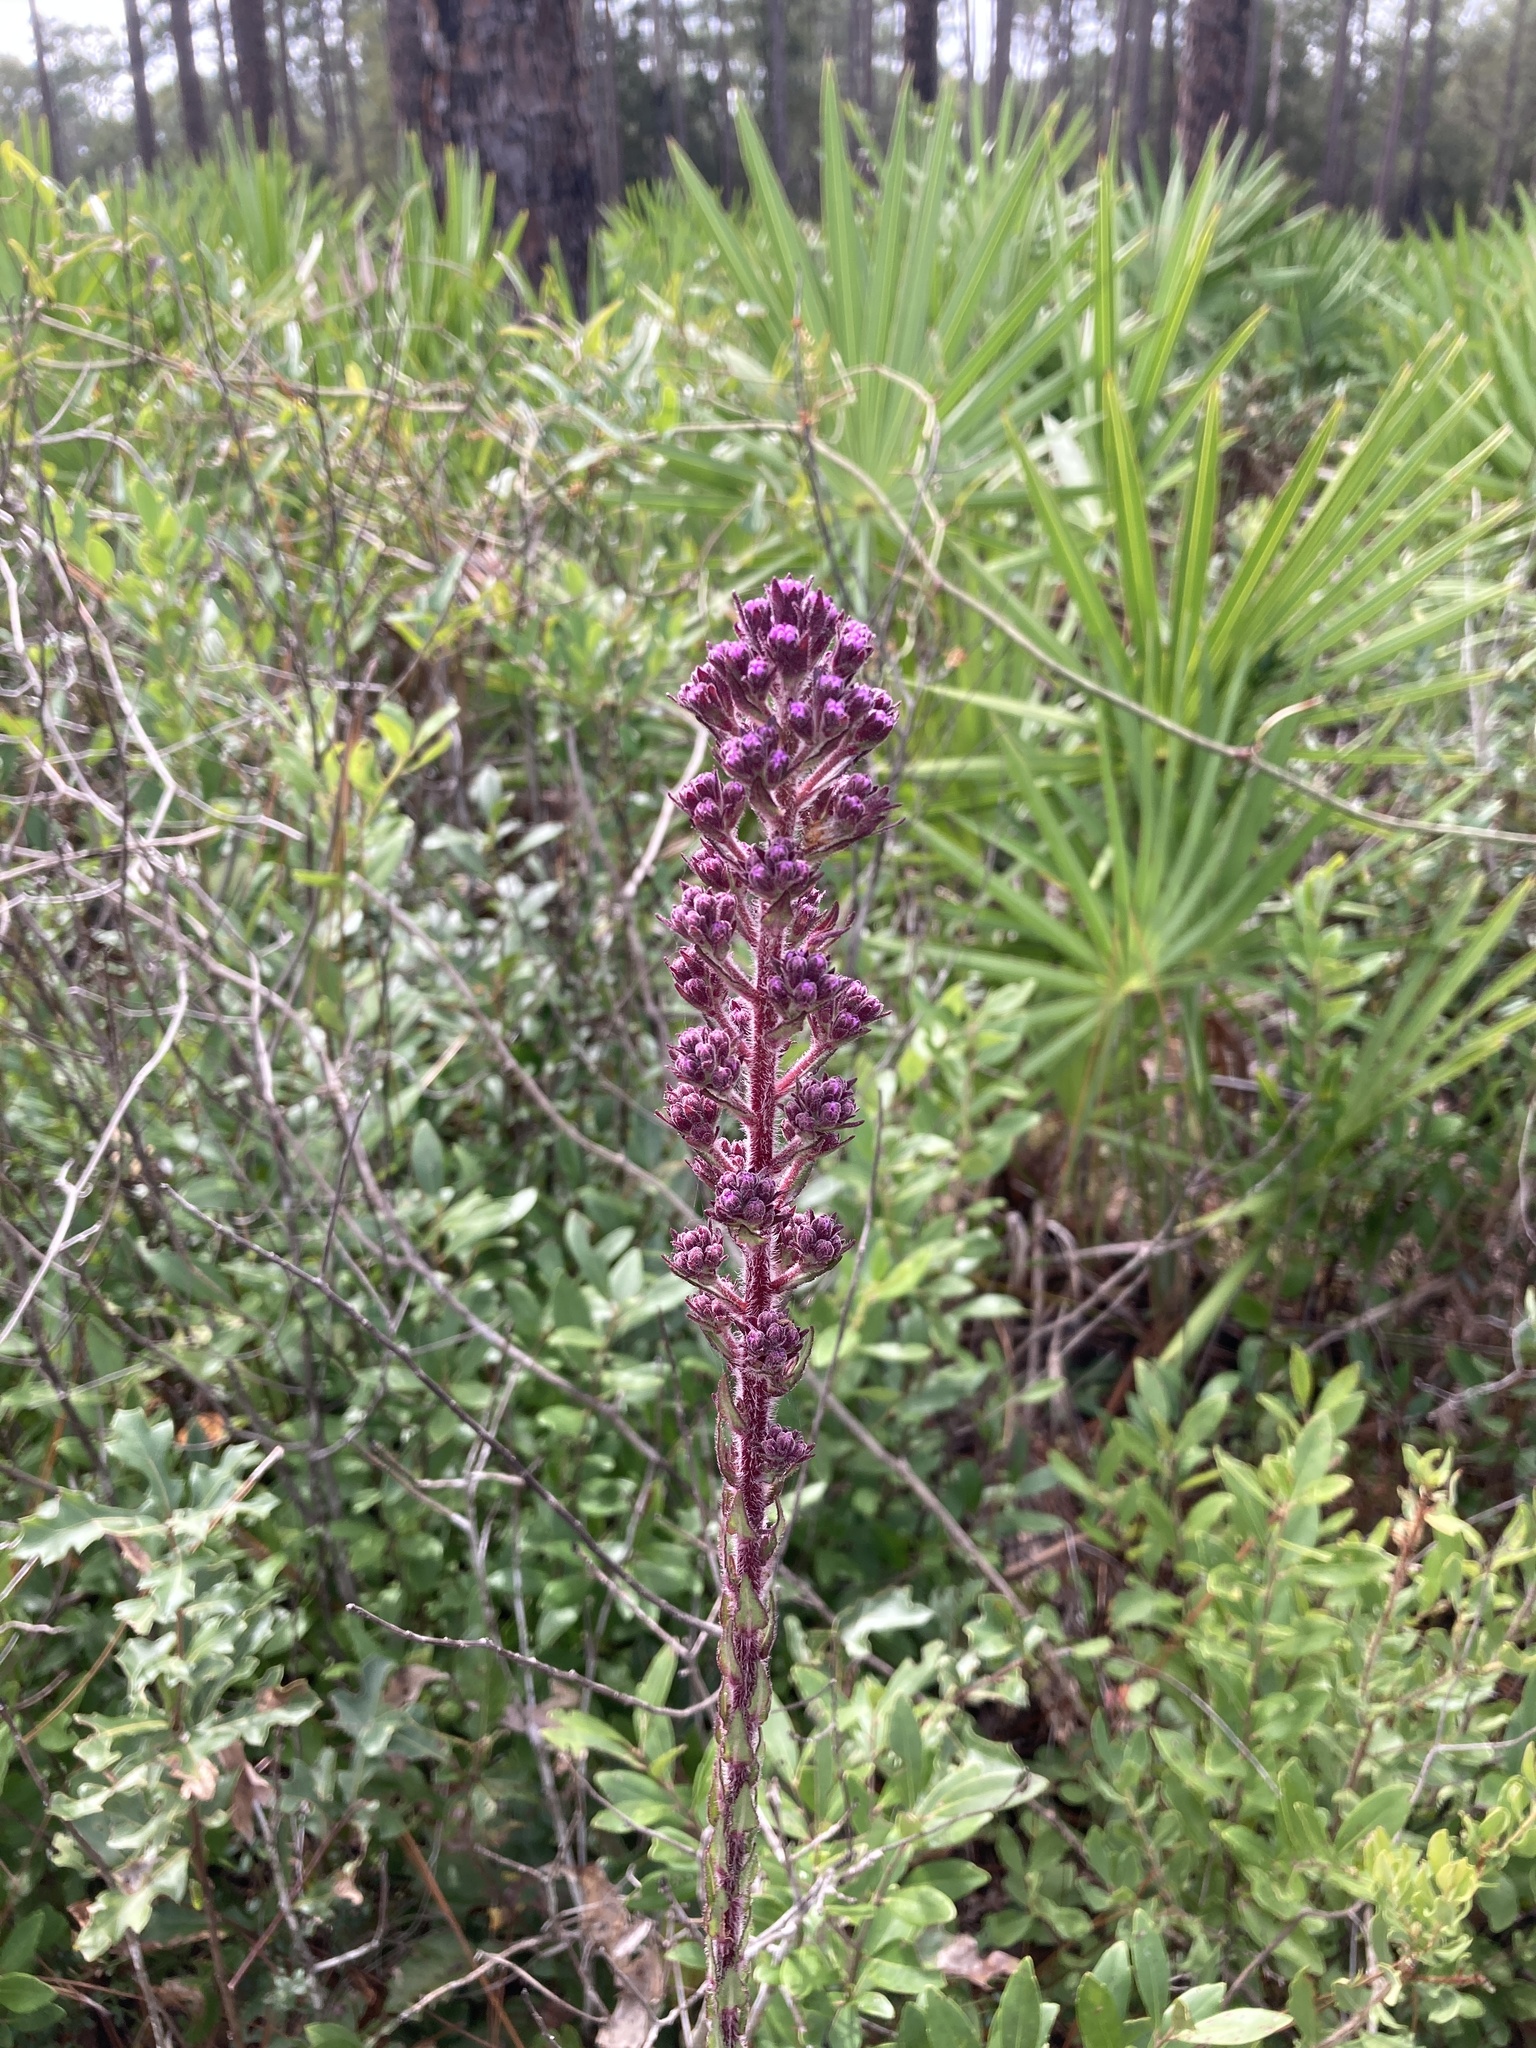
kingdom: Plantae
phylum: Tracheophyta
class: Magnoliopsida
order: Asterales
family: Asteraceae
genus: Carphephorus
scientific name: Carphephorus paniculatus
